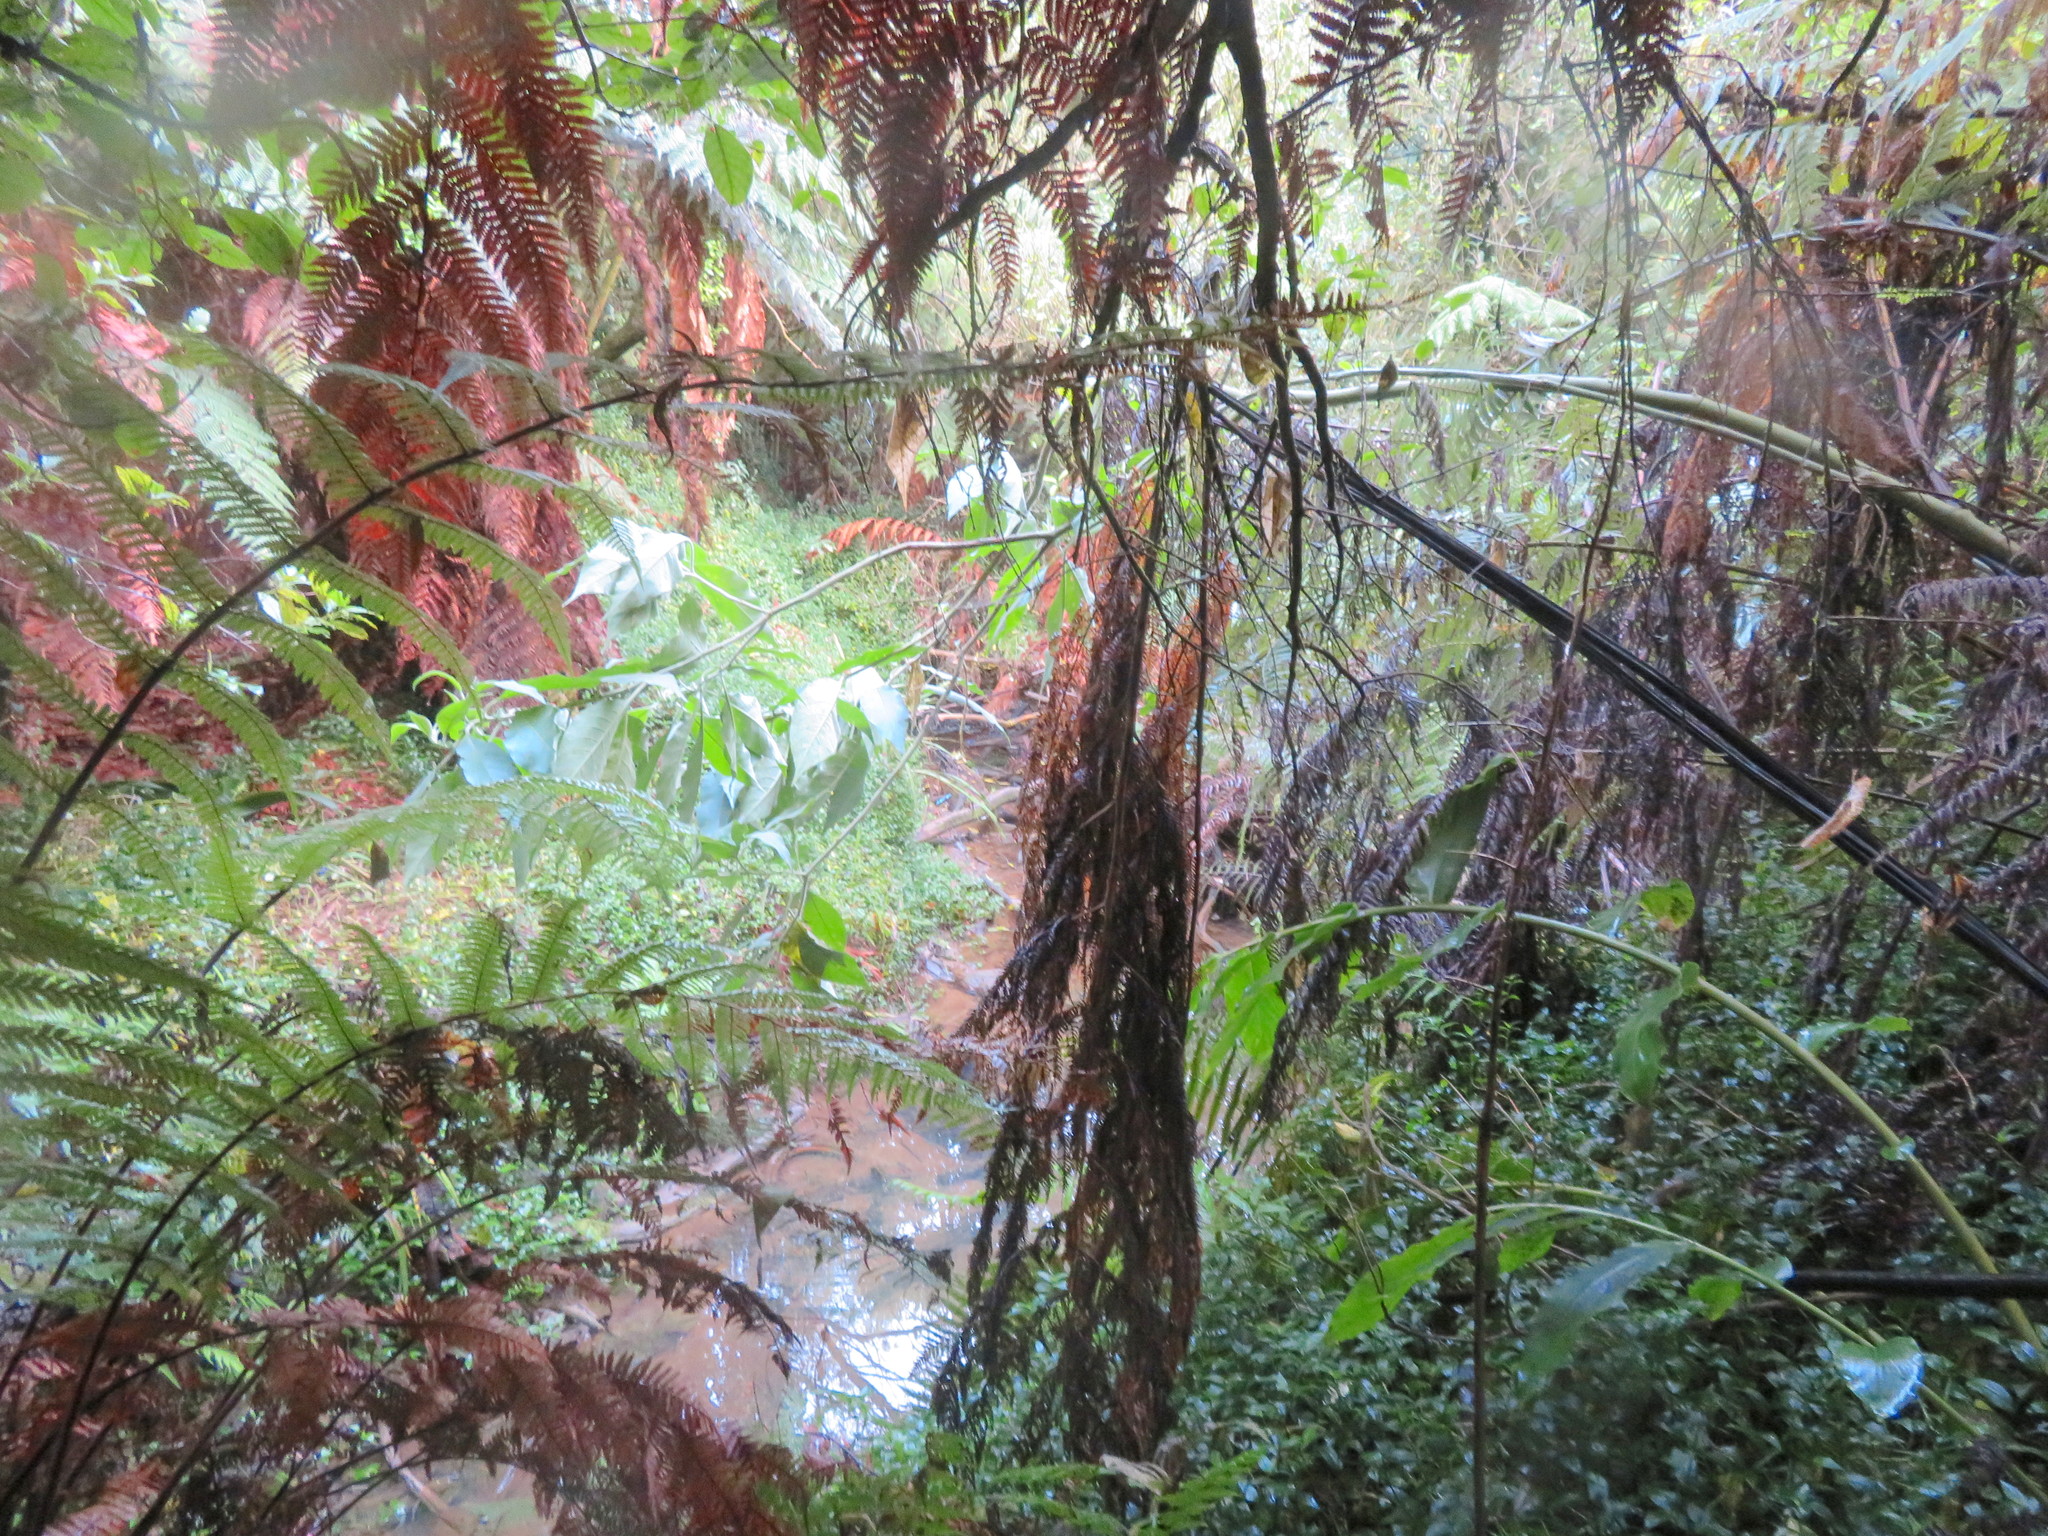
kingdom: Plantae
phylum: Tracheophyta
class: Liliopsida
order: Zingiberales
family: Zingiberaceae
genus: Hedychium
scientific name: Hedychium gardnerianum
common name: Himalayan ginger
